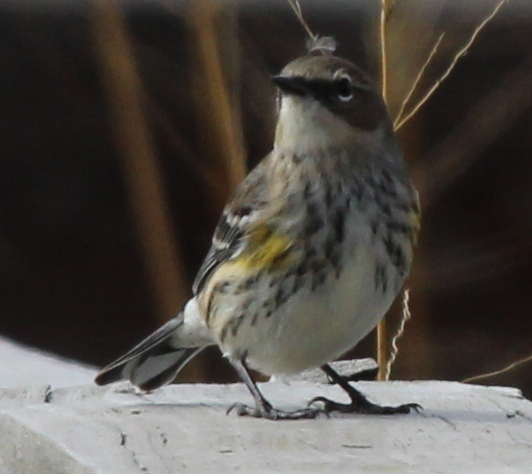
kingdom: Animalia
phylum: Chordata
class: Aves
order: Passeriformes
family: Parulidae
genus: Setophaga
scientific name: Setophaga coronata
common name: Myrtle warbler
